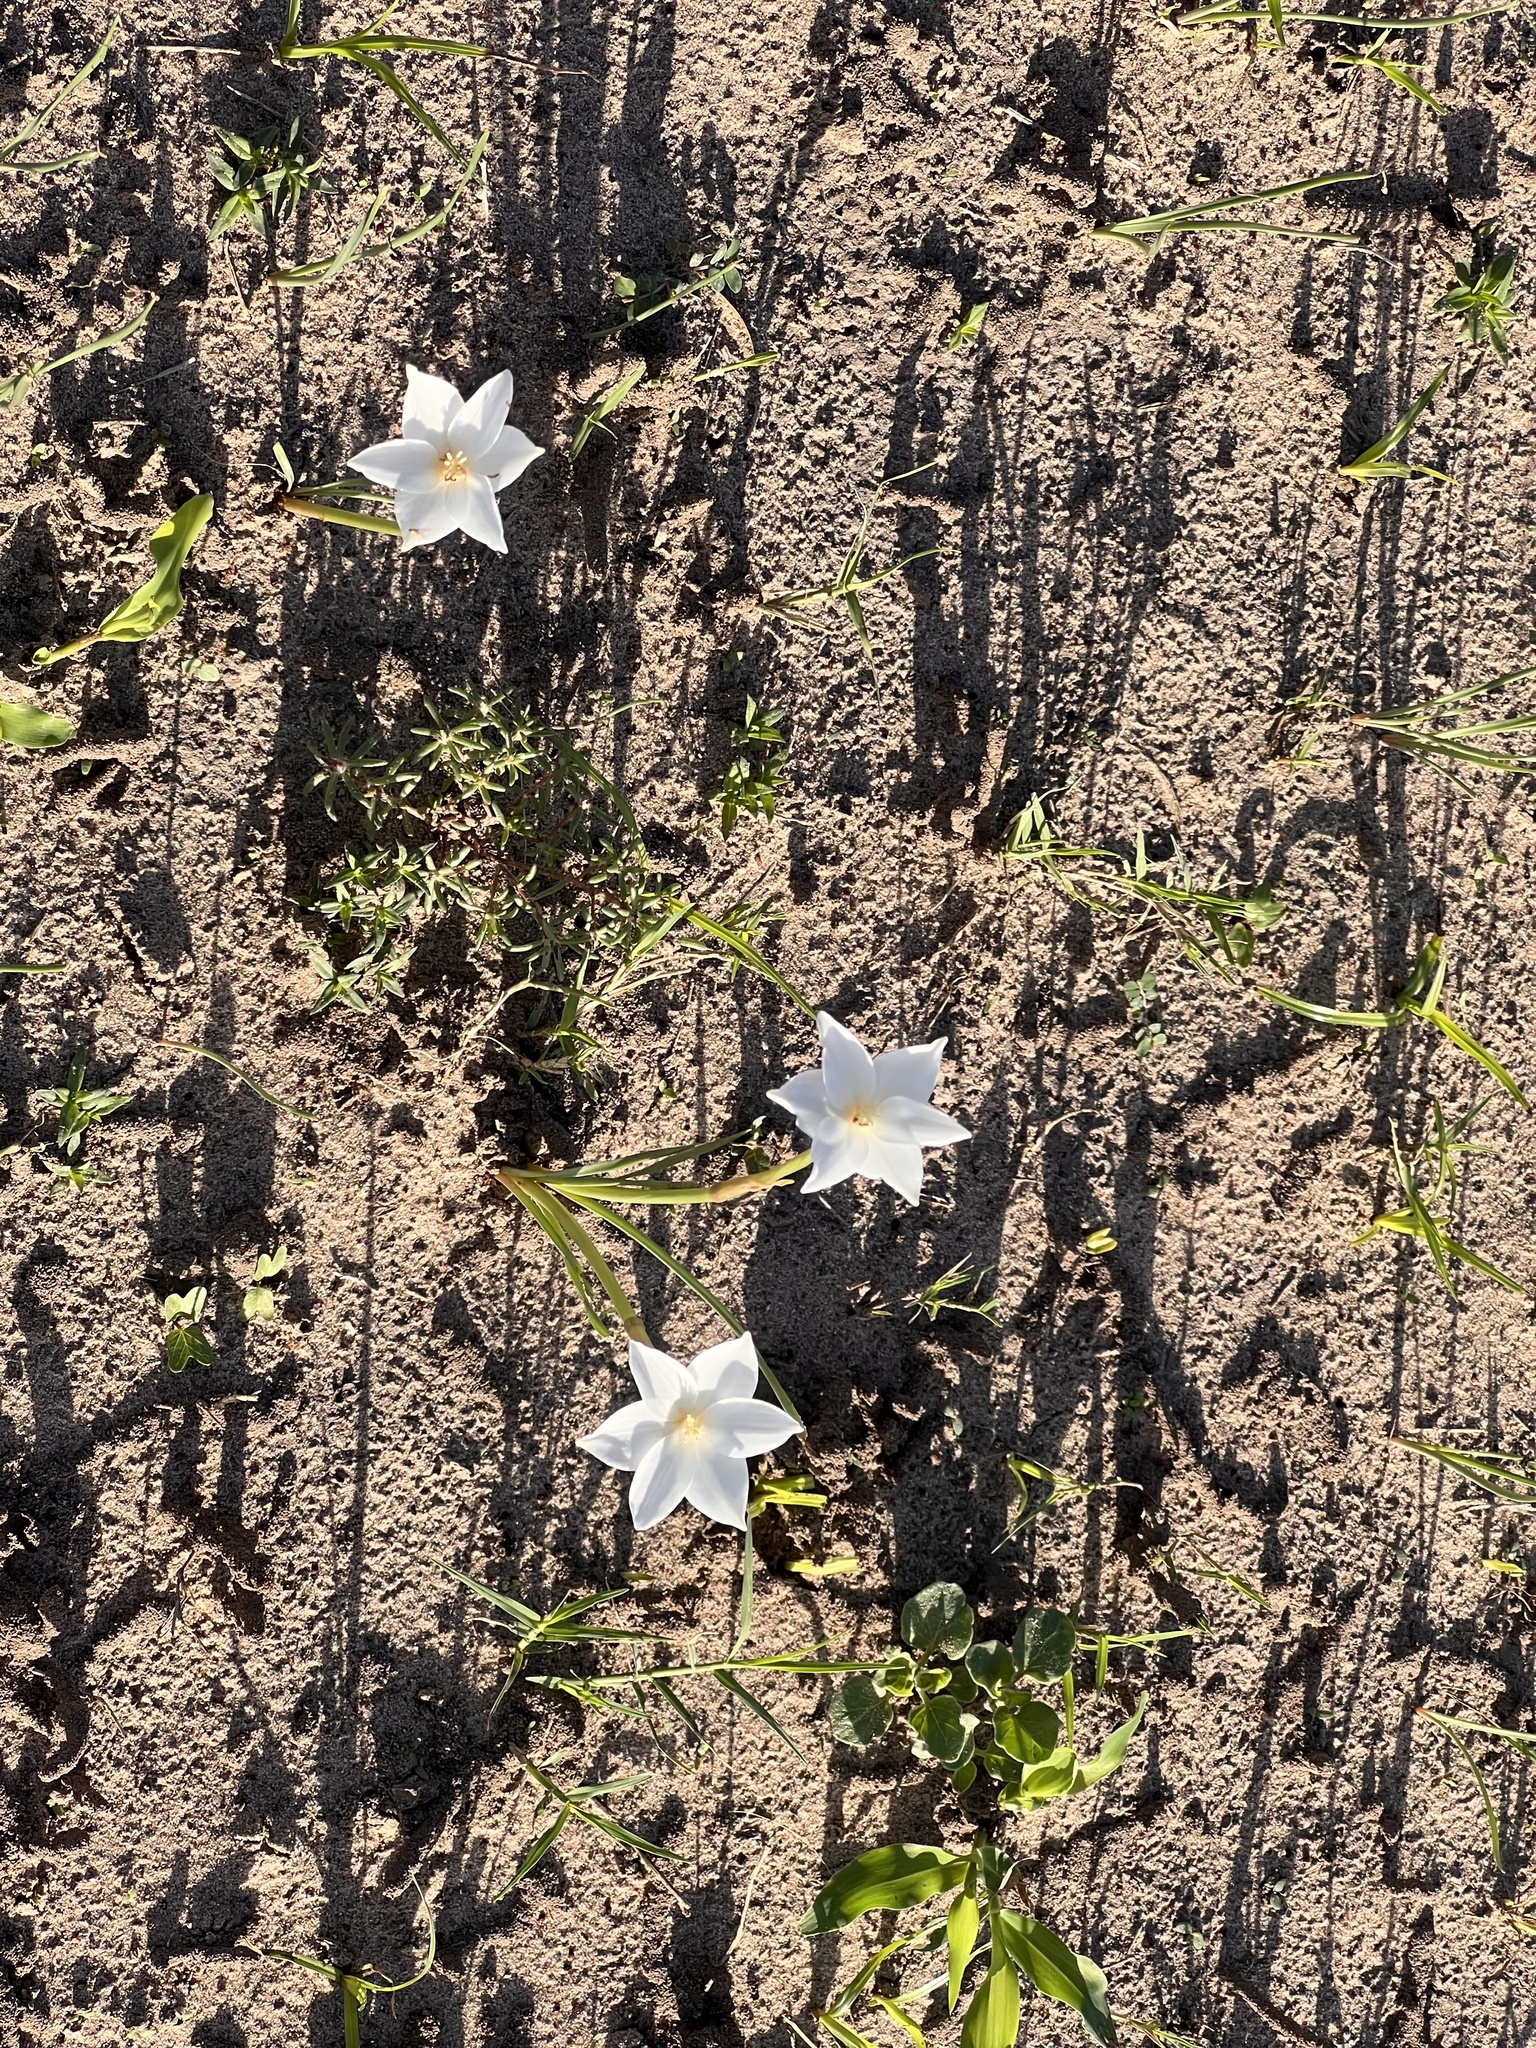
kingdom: Plantae
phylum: Tracheophyta
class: Liliopsida
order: Asparagales
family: Amaryllidaceae
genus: Zephyranthes
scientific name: Zephyranthes chlorosolen
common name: Evening rain-lily
